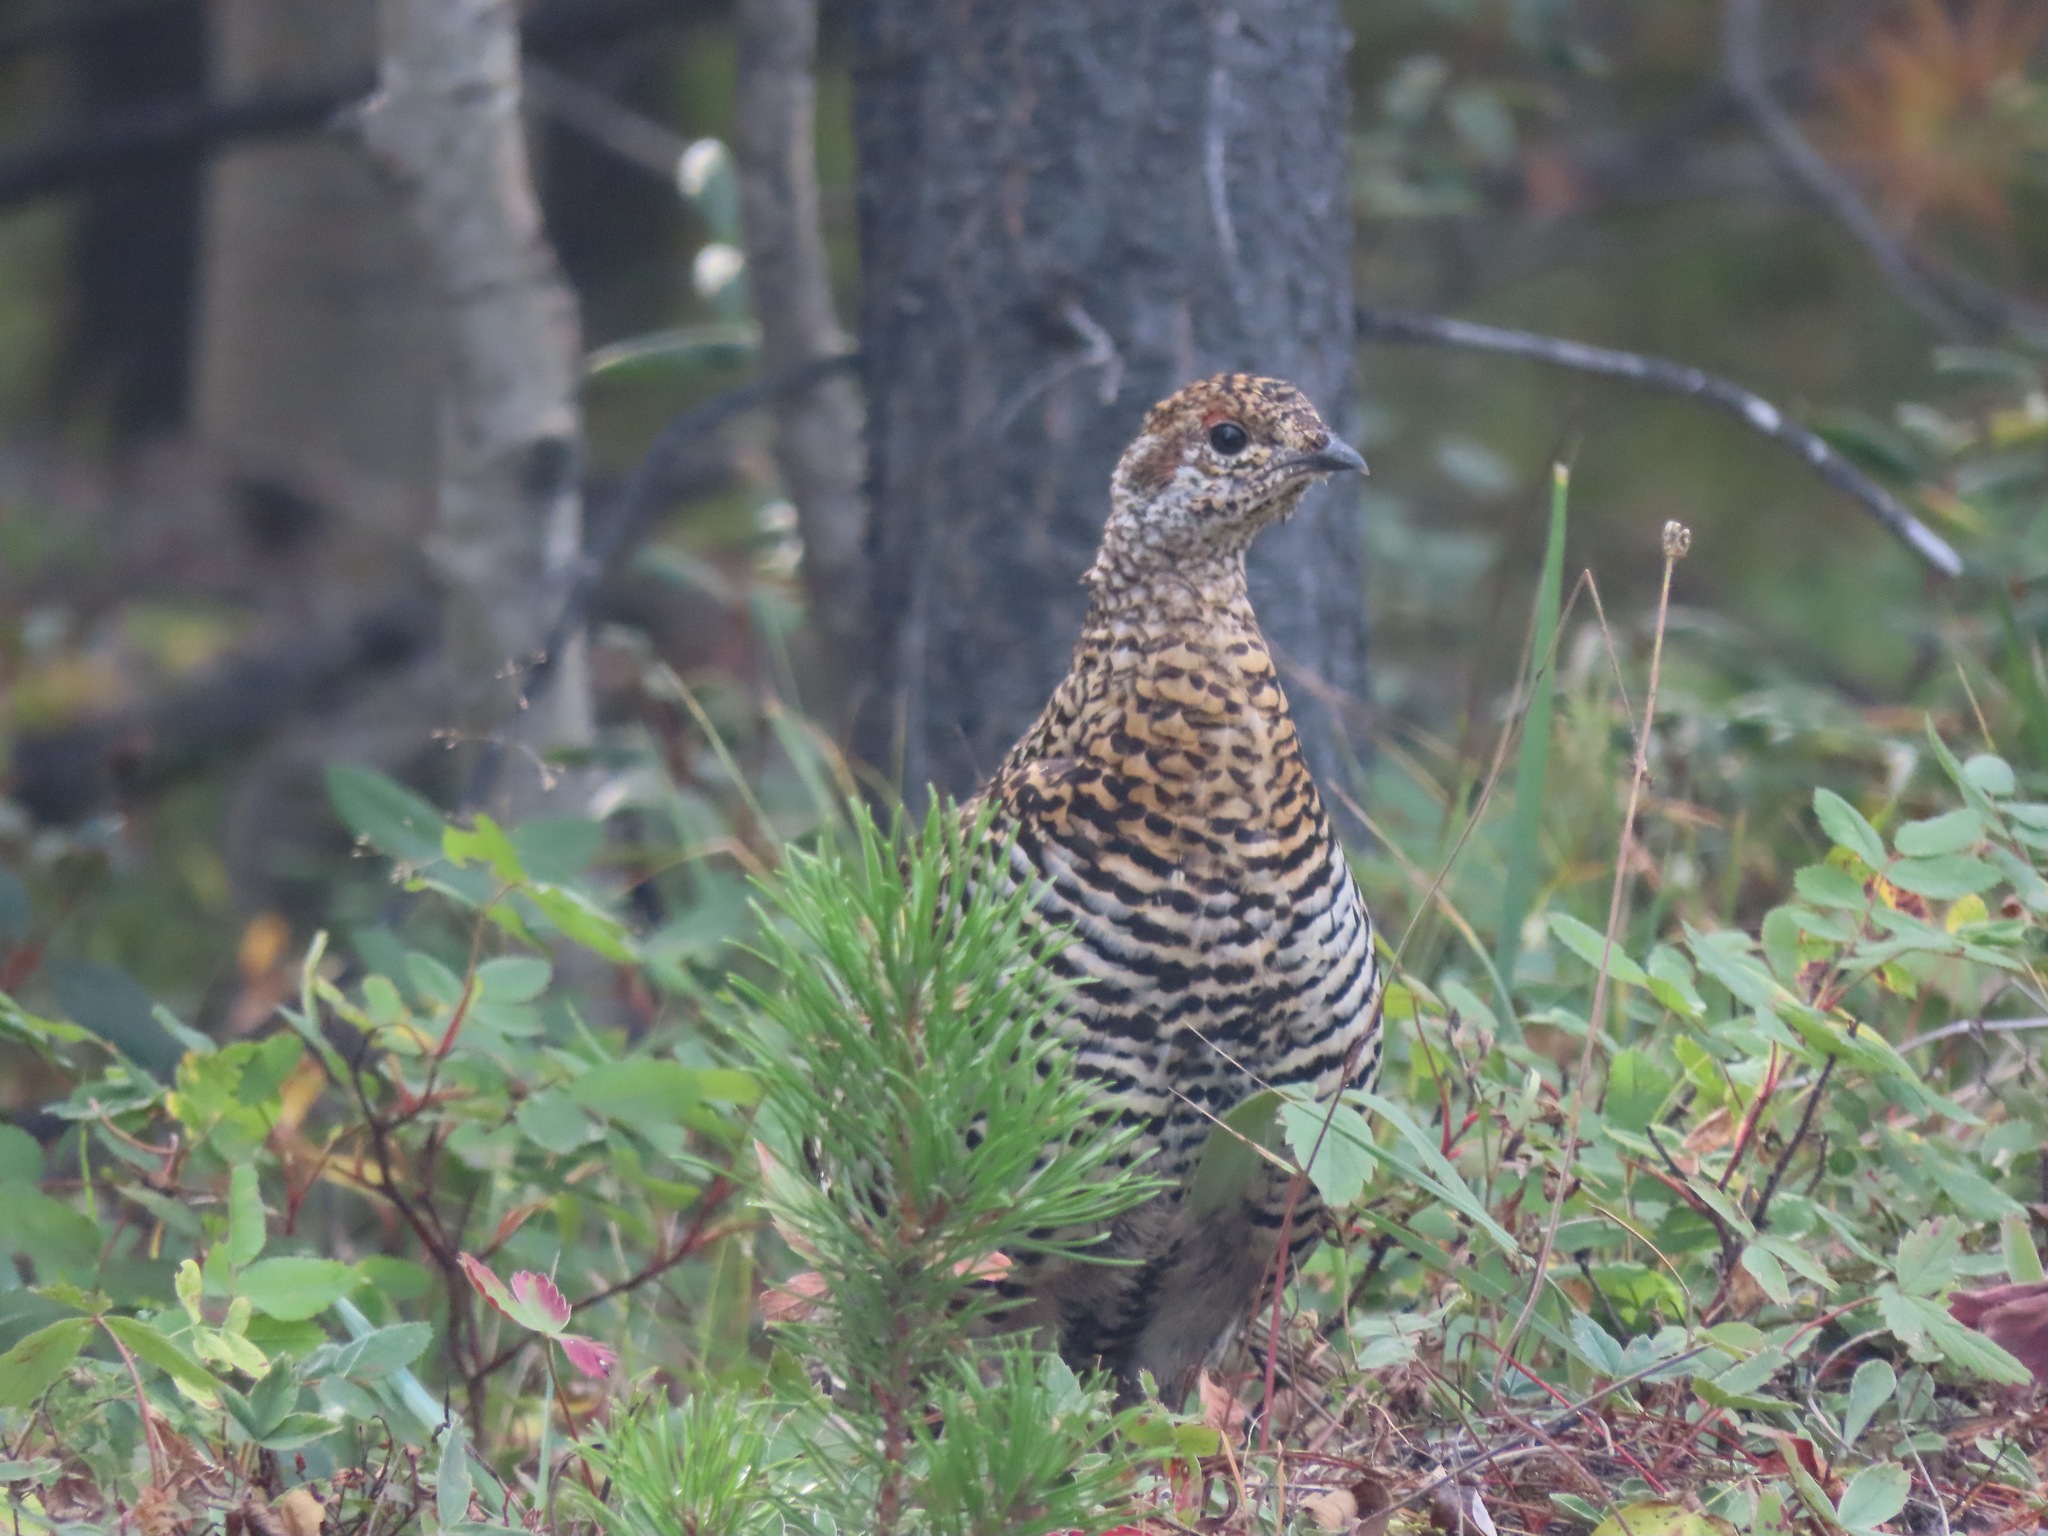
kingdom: Animalia
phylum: Chordata
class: Aves
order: Galliformes
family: Phasianidae
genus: Canachites
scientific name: Canachites canadensis
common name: Spruce grouse
